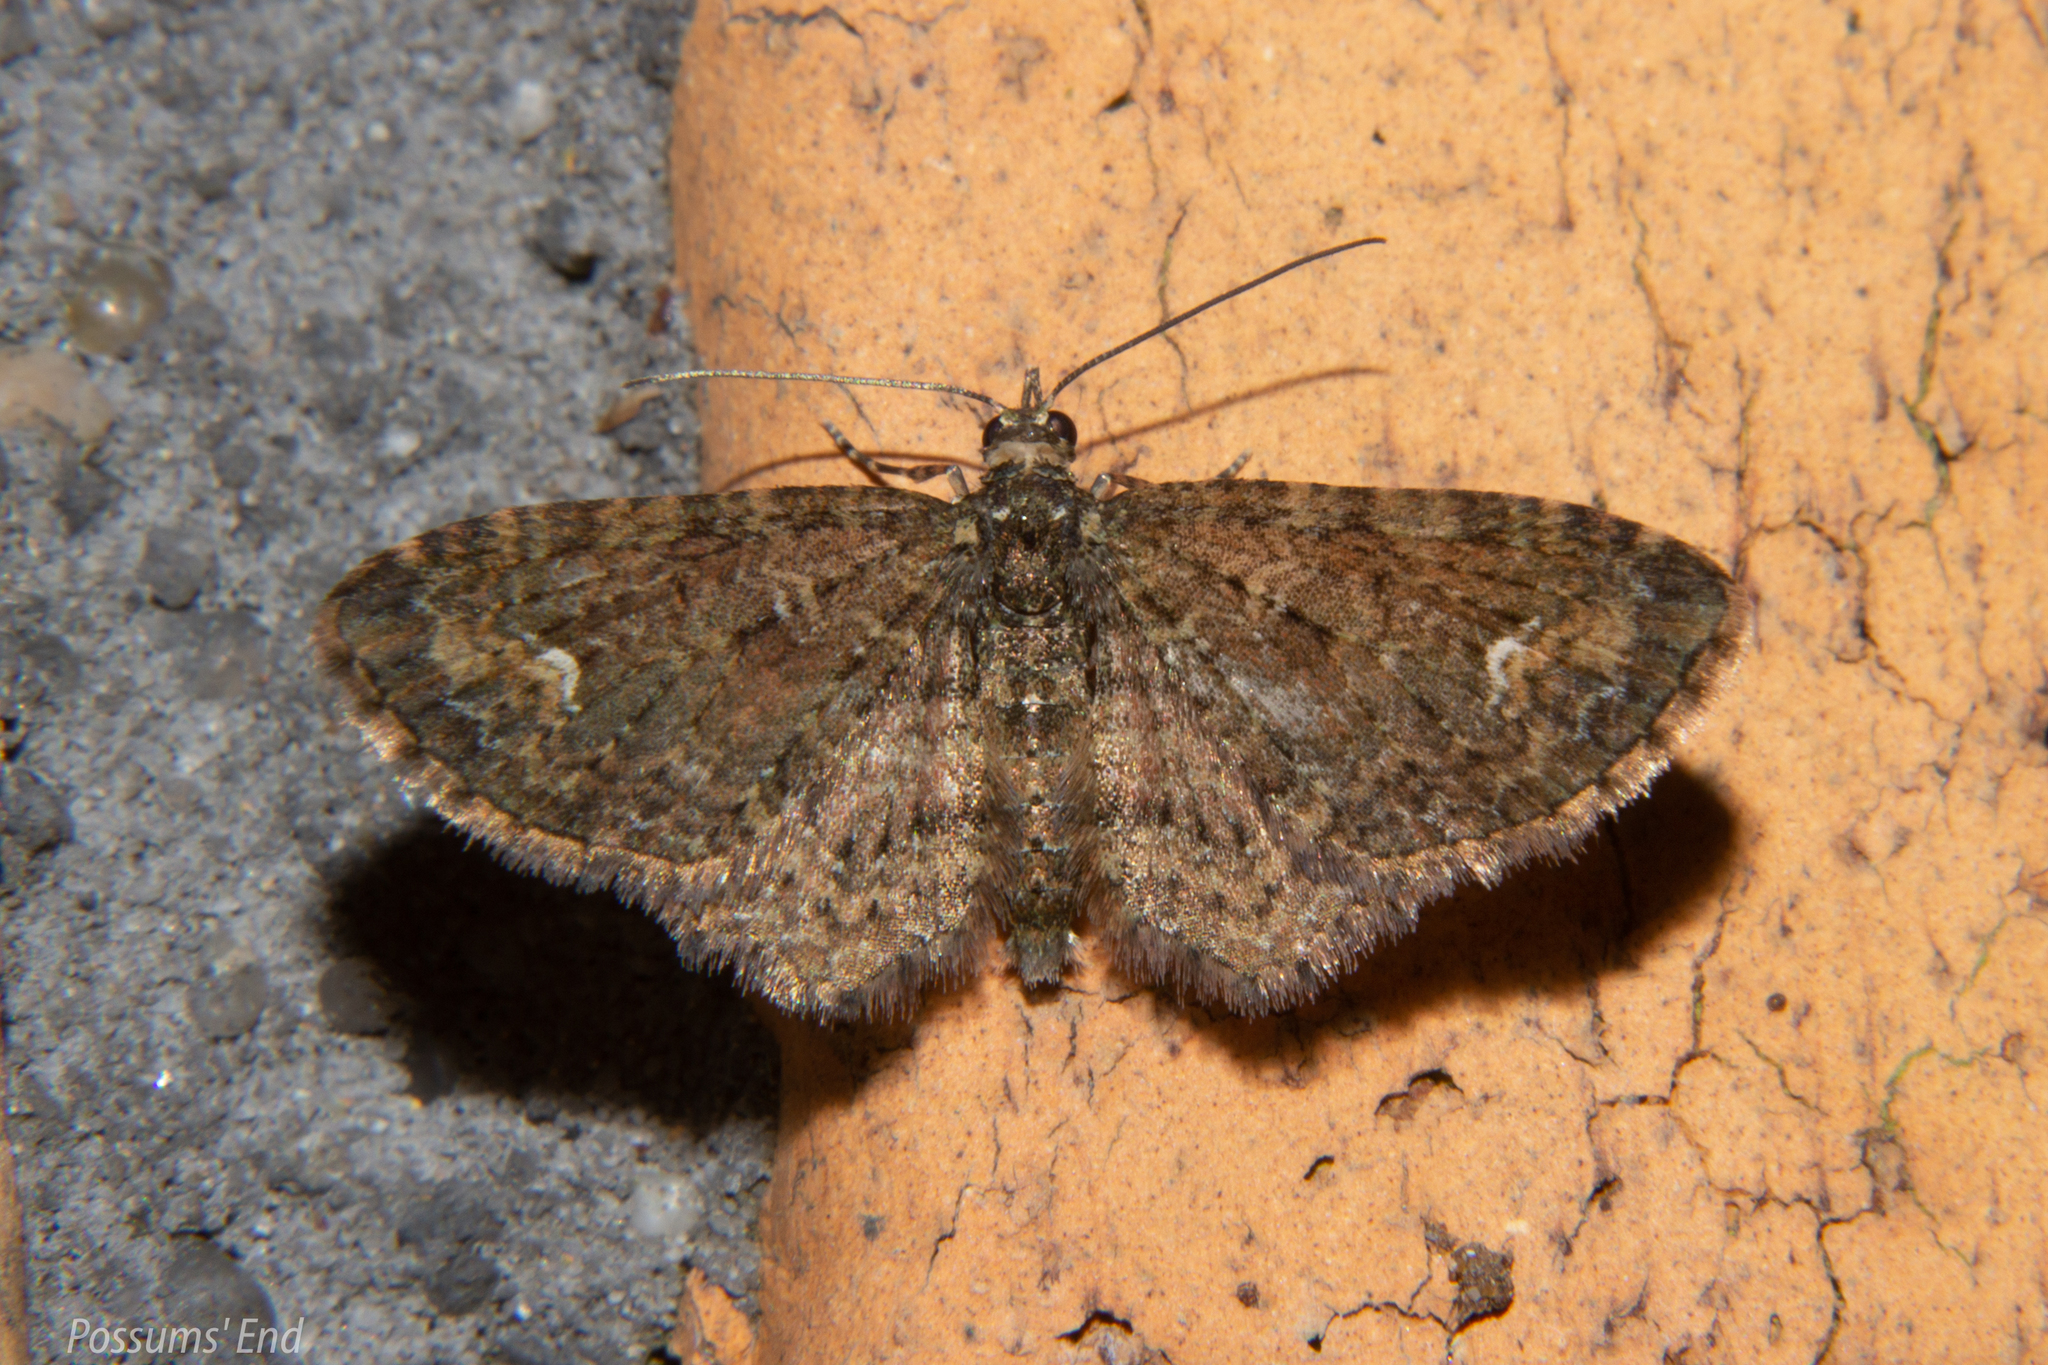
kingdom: Animalia
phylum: Arthropoda
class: Insecta
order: Lepidoptera
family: Geometridae
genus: Pasiphilodes
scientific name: Pasiphilodes testulata
